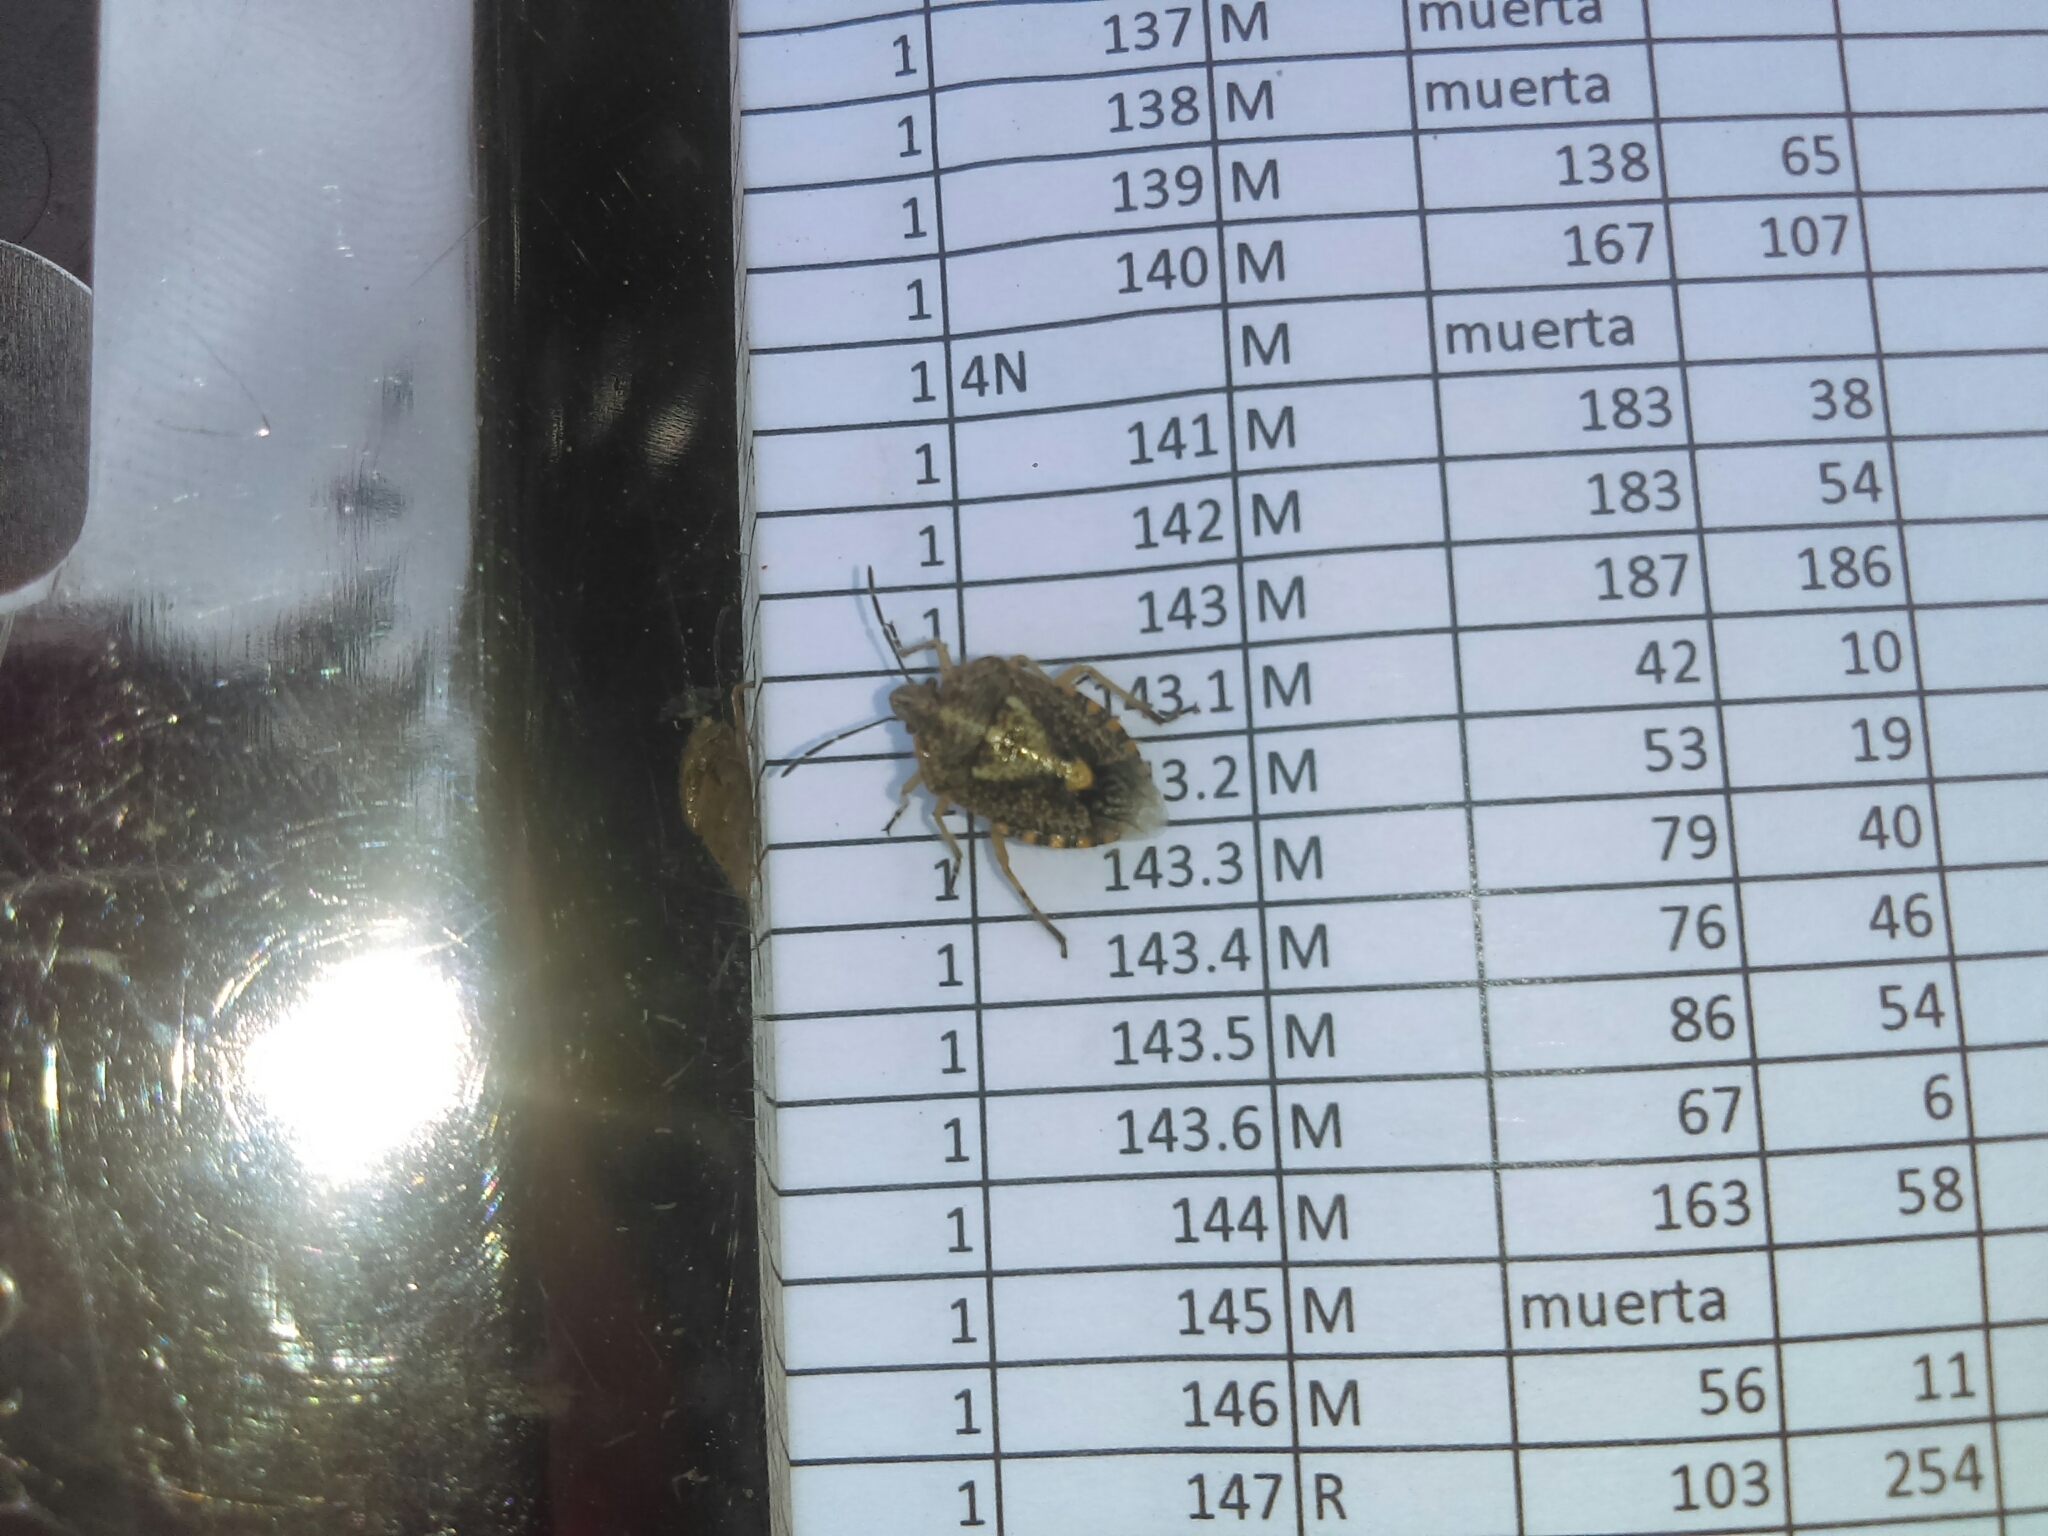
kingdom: Animalia
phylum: Arthropoda
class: Insecta
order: Hemiptera
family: Pentatomidae
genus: Agonoscelis
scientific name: Agonoscelis puberula
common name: African cluster bug
